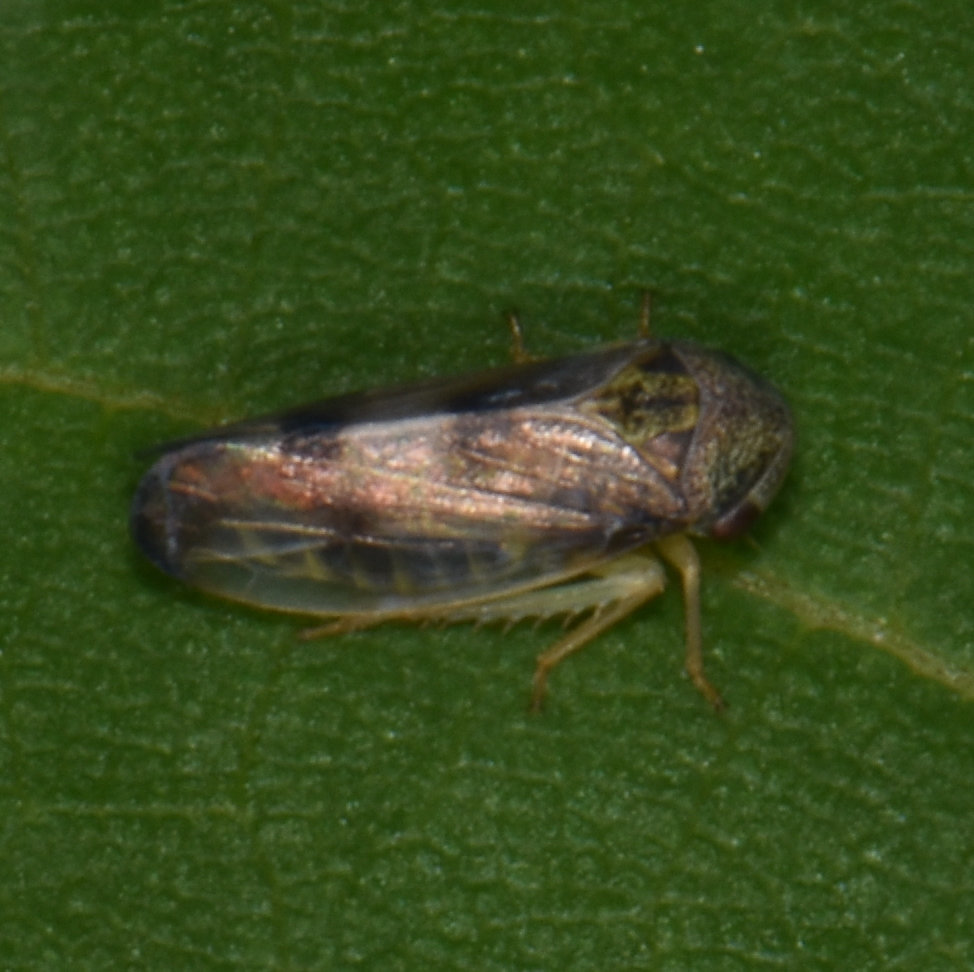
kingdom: Animalia
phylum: Arthropoda
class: Insecta
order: Hemiptera
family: Cicadellidae
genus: Pediopsoides
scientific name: Pediopsoides distinctus
